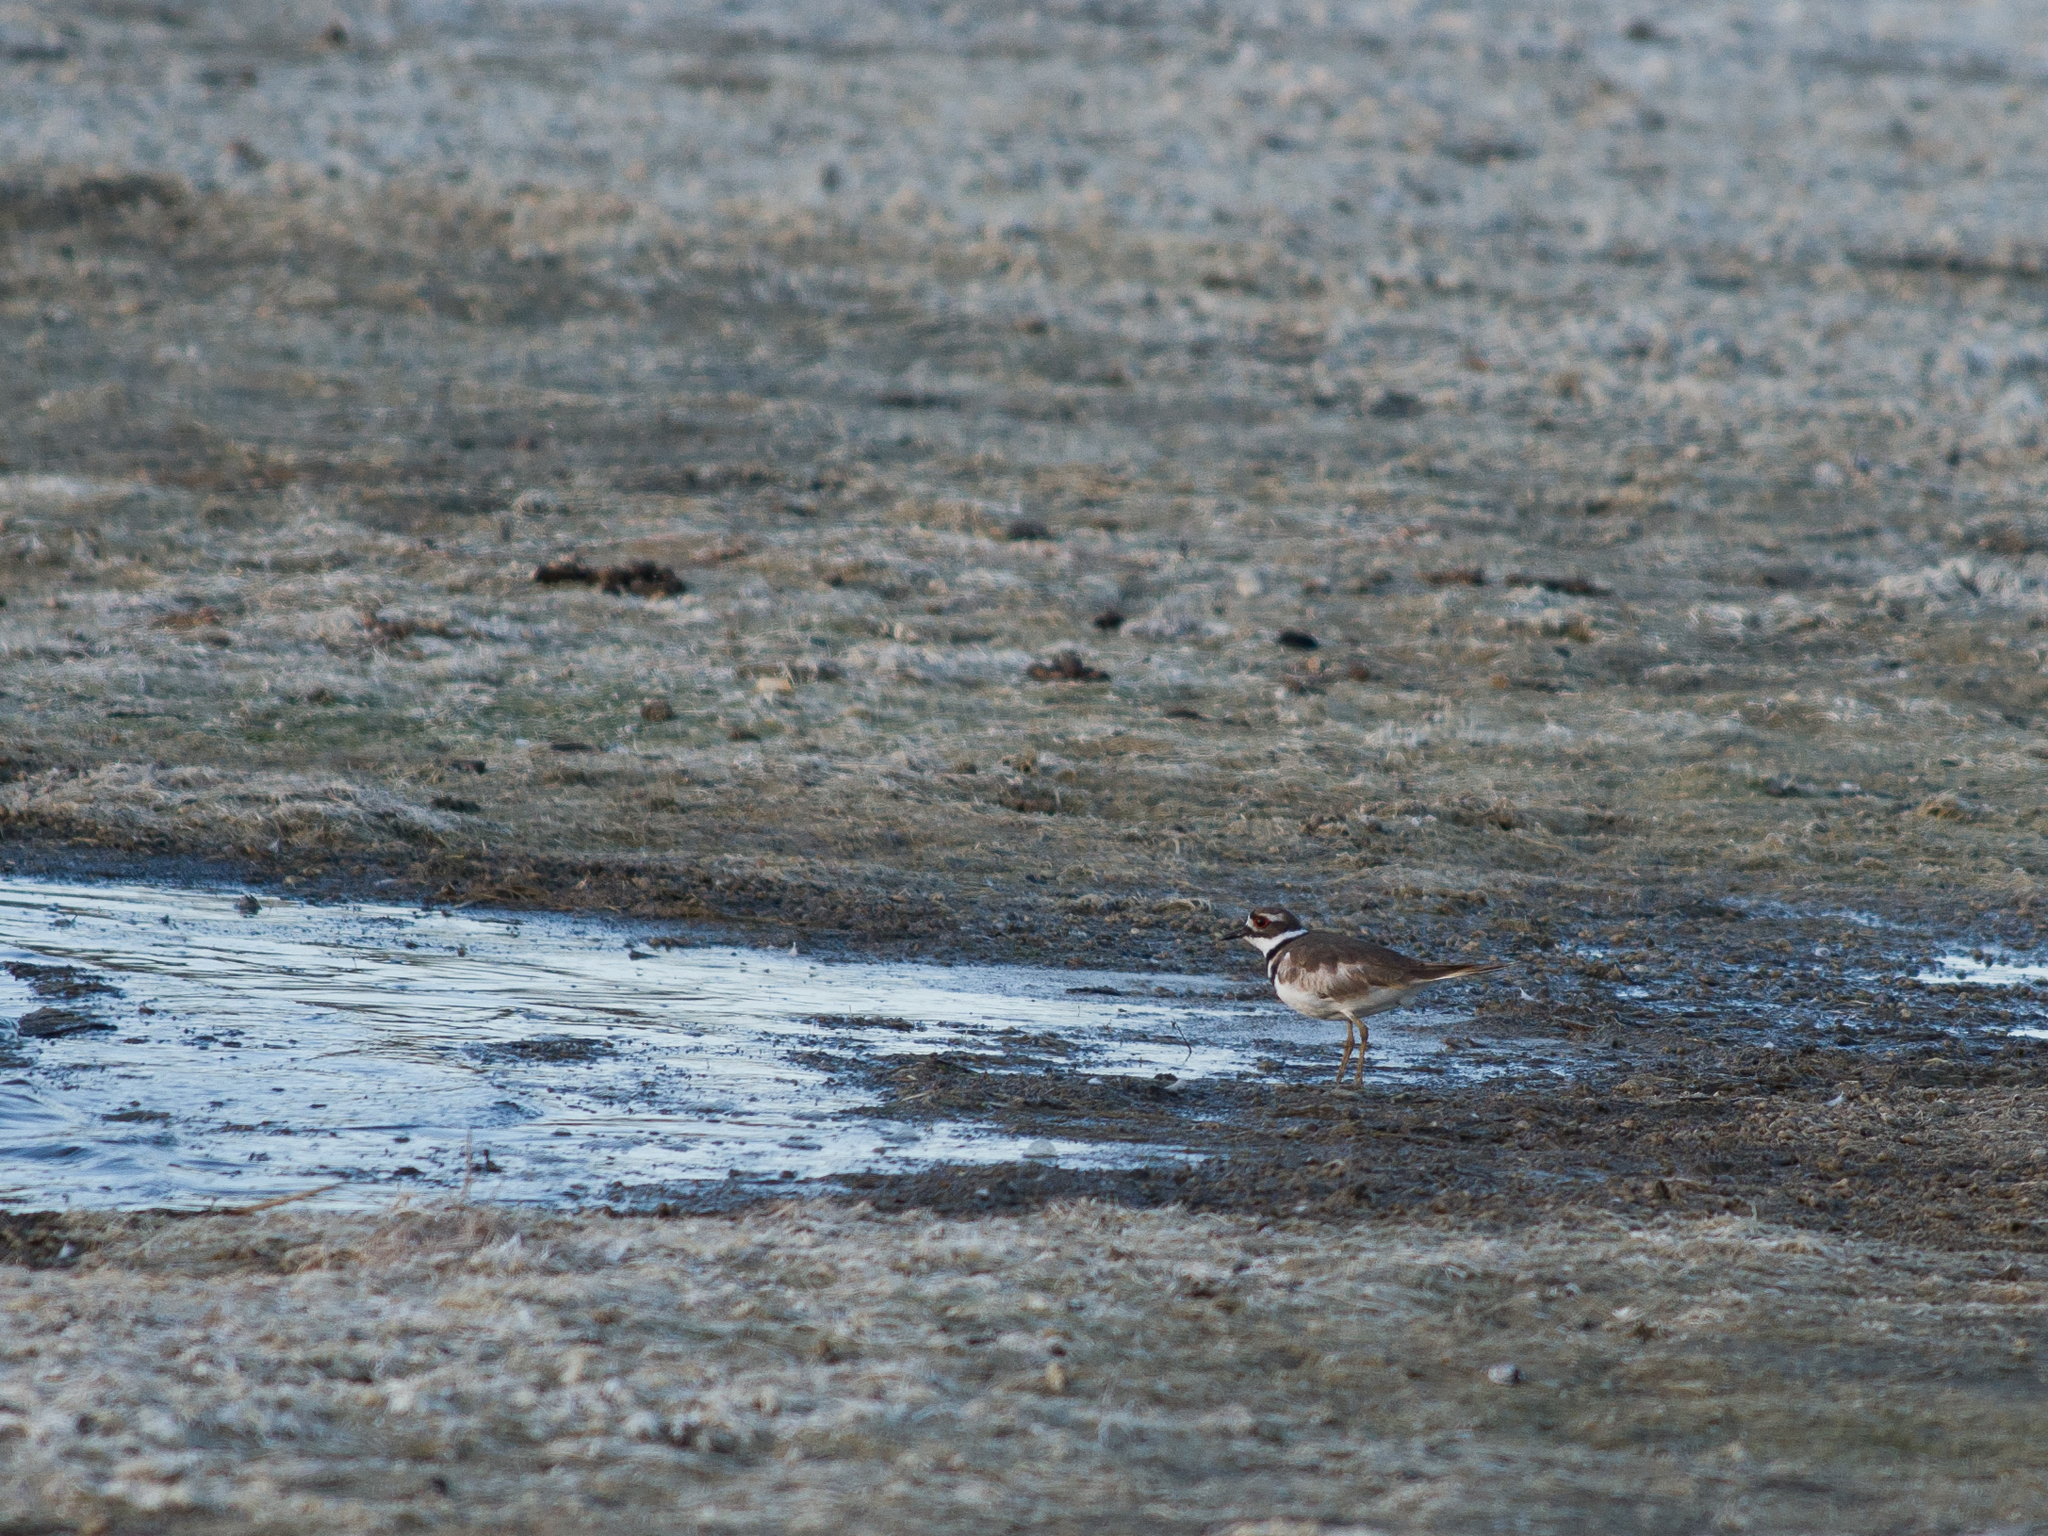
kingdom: Animalia
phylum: Chordata
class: Aves
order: Charadriiformes
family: Charadriidae
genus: Charadrius
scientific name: Charadrius vociferus
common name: Killdeer
